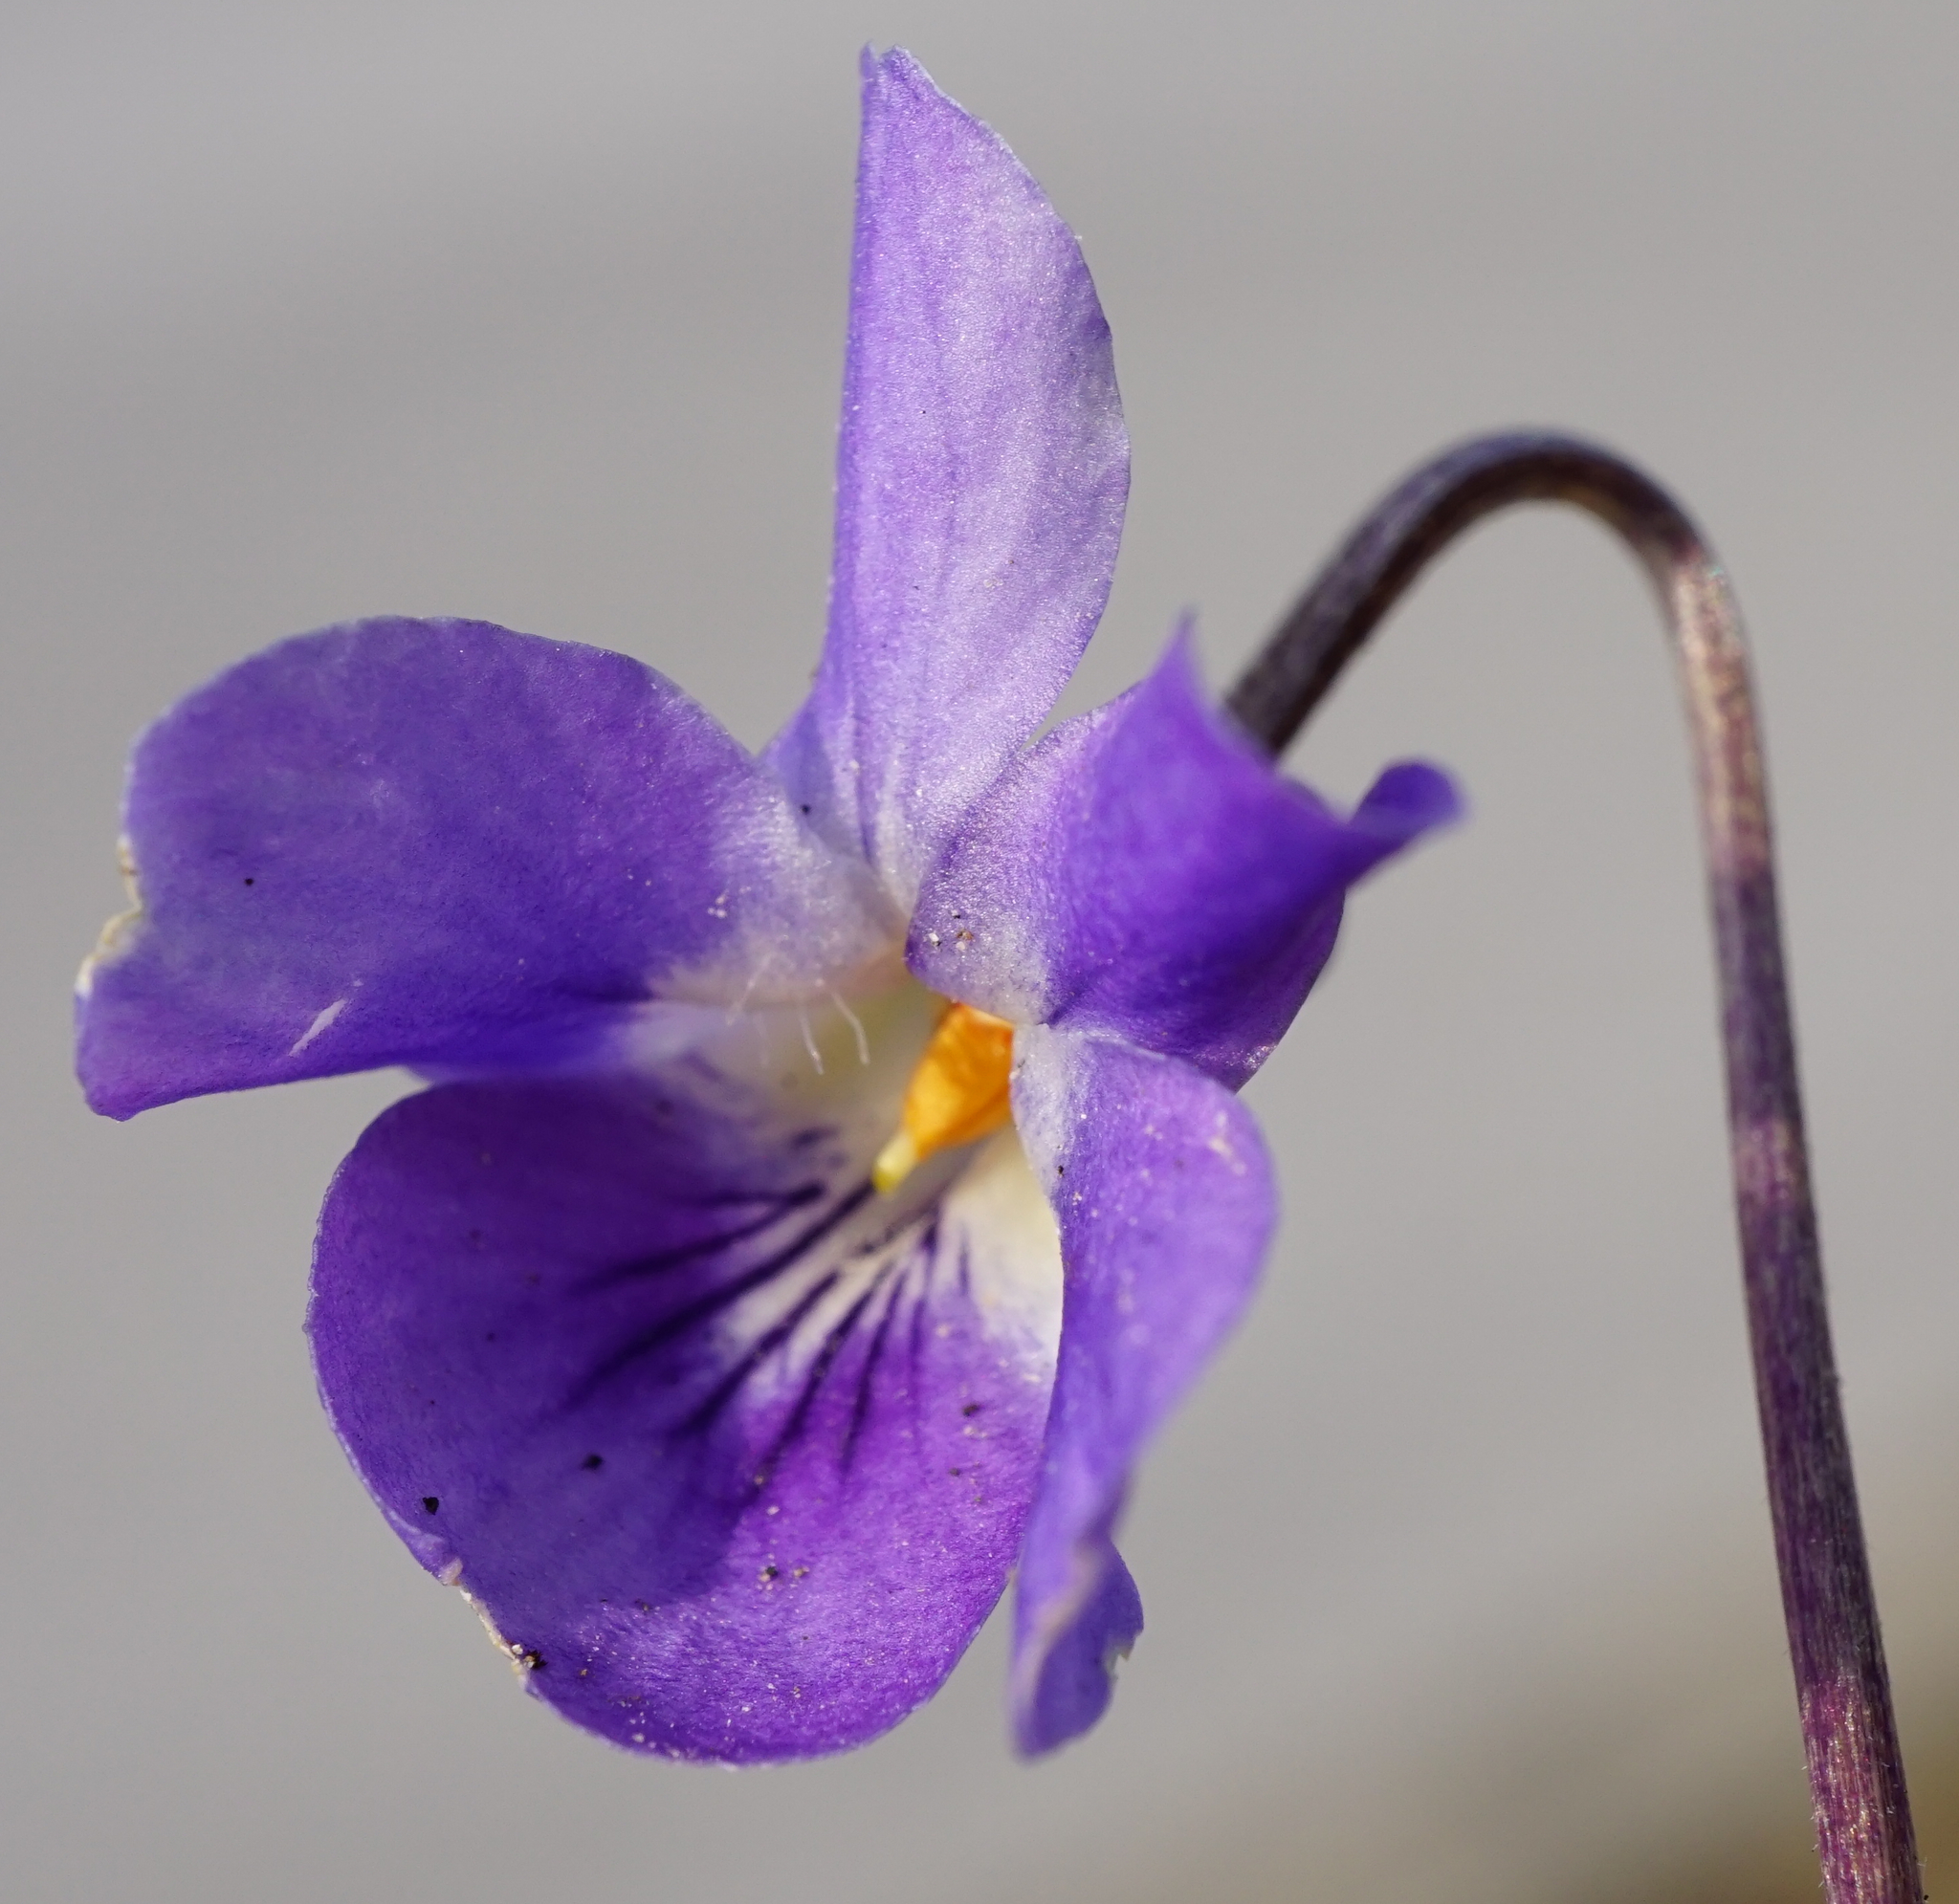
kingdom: Plantae
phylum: Tracheophyta
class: Magnoliopsida
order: Malpighiales
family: Violaceae
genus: Viola
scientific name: Viola odorata
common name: Sweet violet
